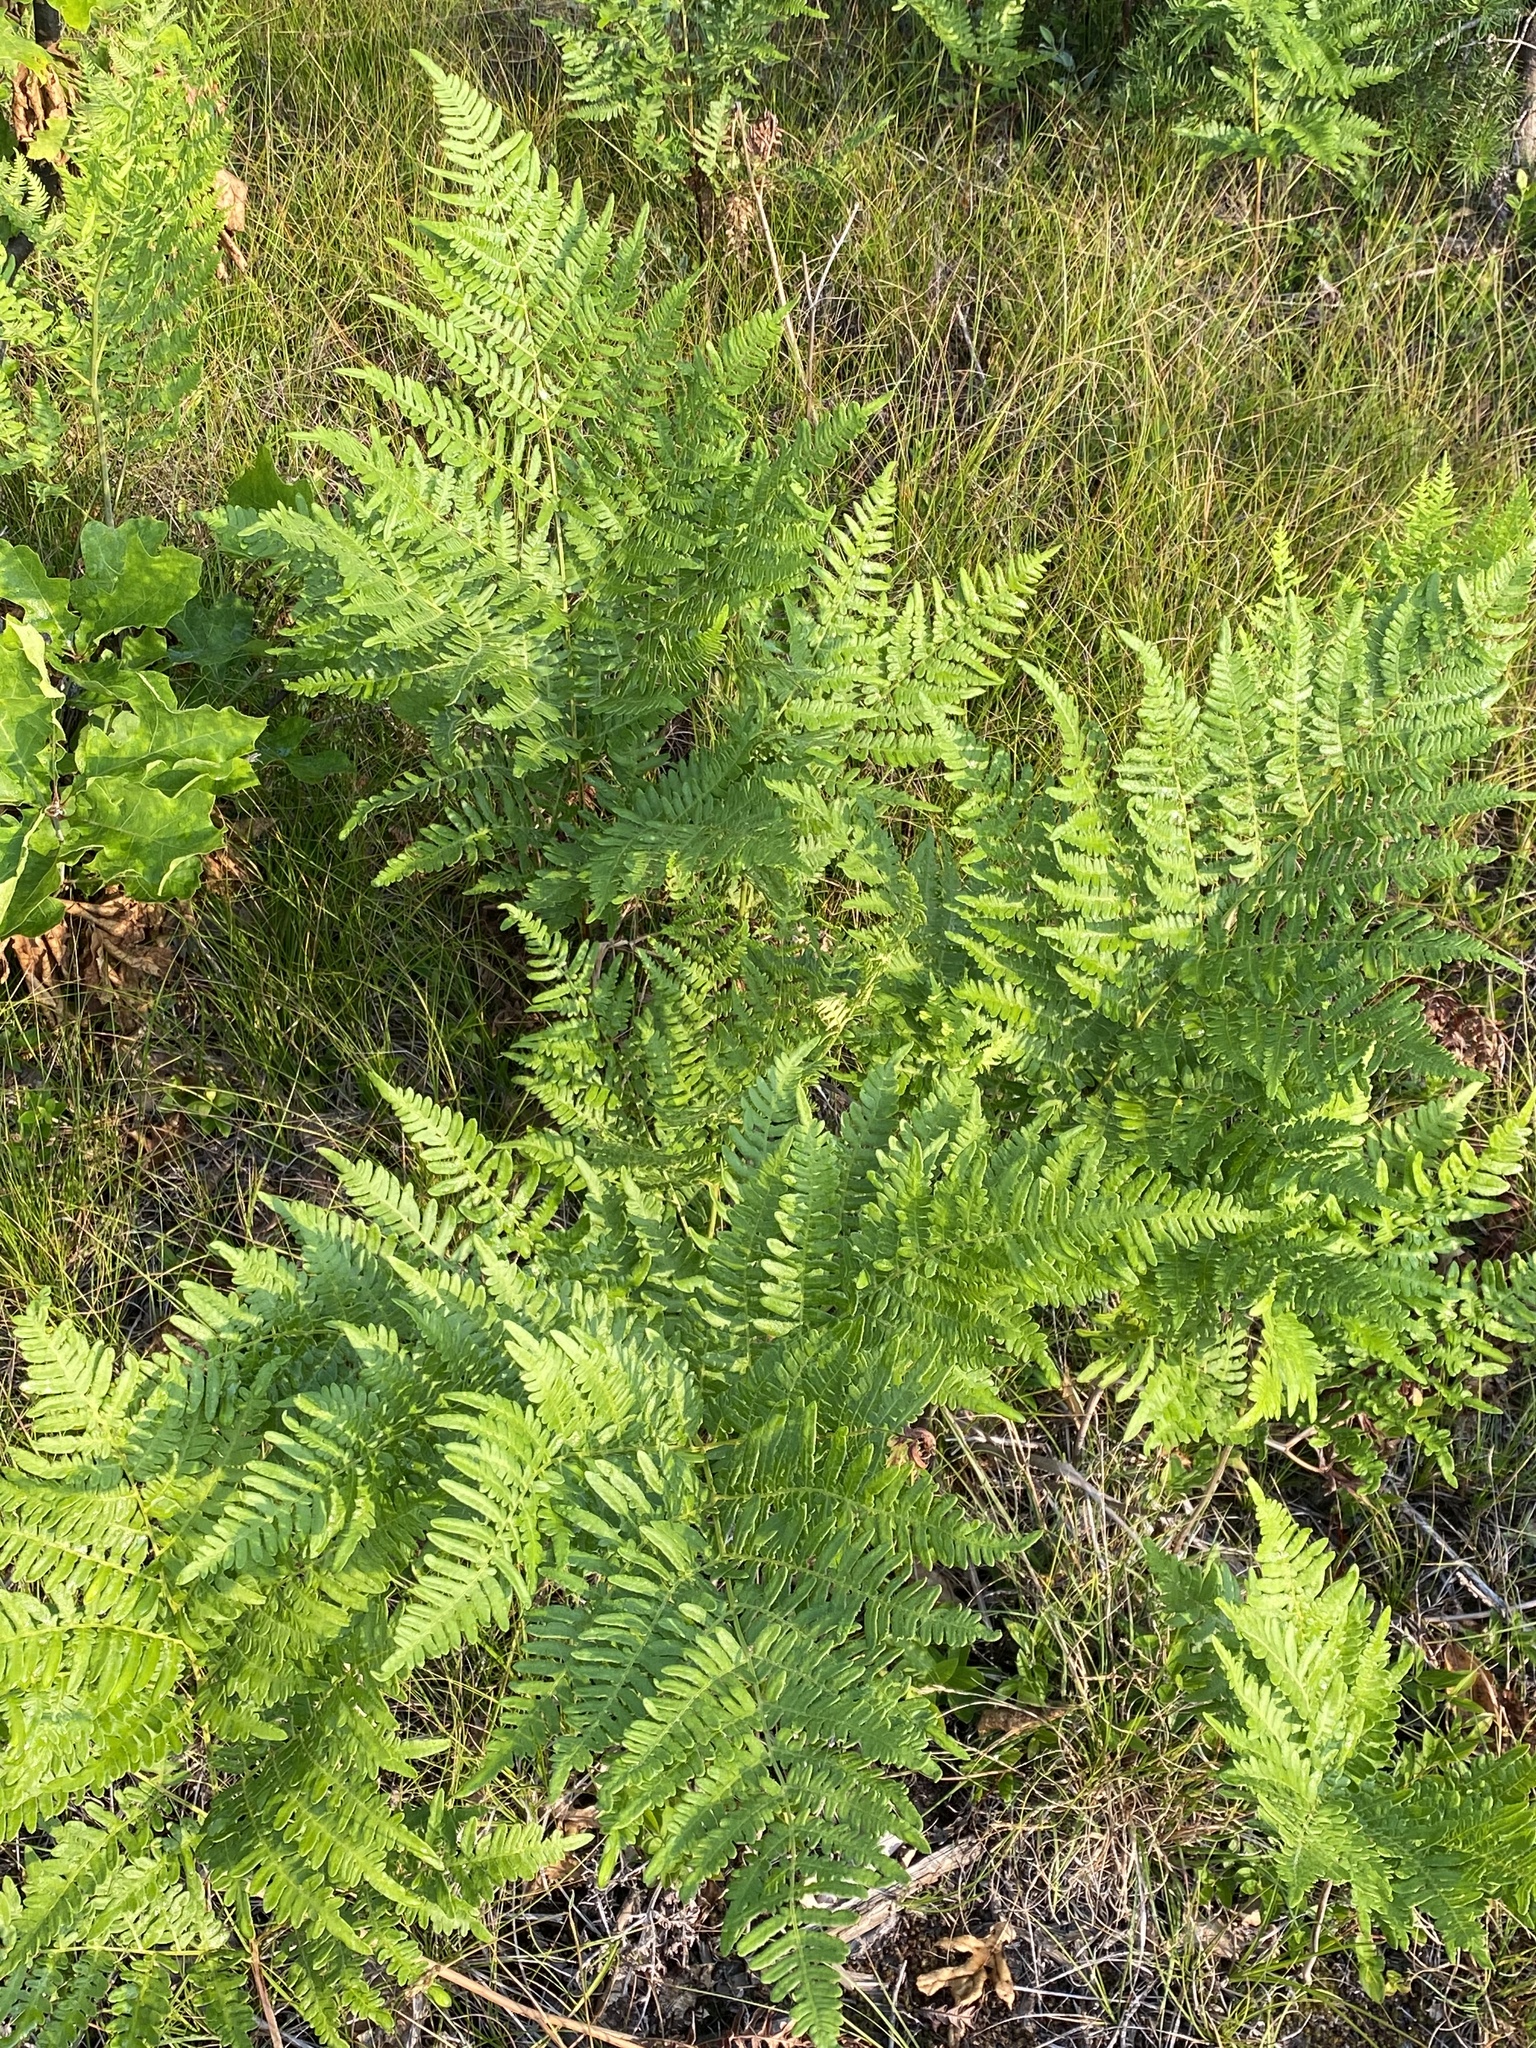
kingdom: Plantae
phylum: Tracheophyta
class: Polypodiopsida
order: Polypodiales
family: Dennstaedtiaceae
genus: Pteridium
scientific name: Pteridium aquilinum
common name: Bracken
